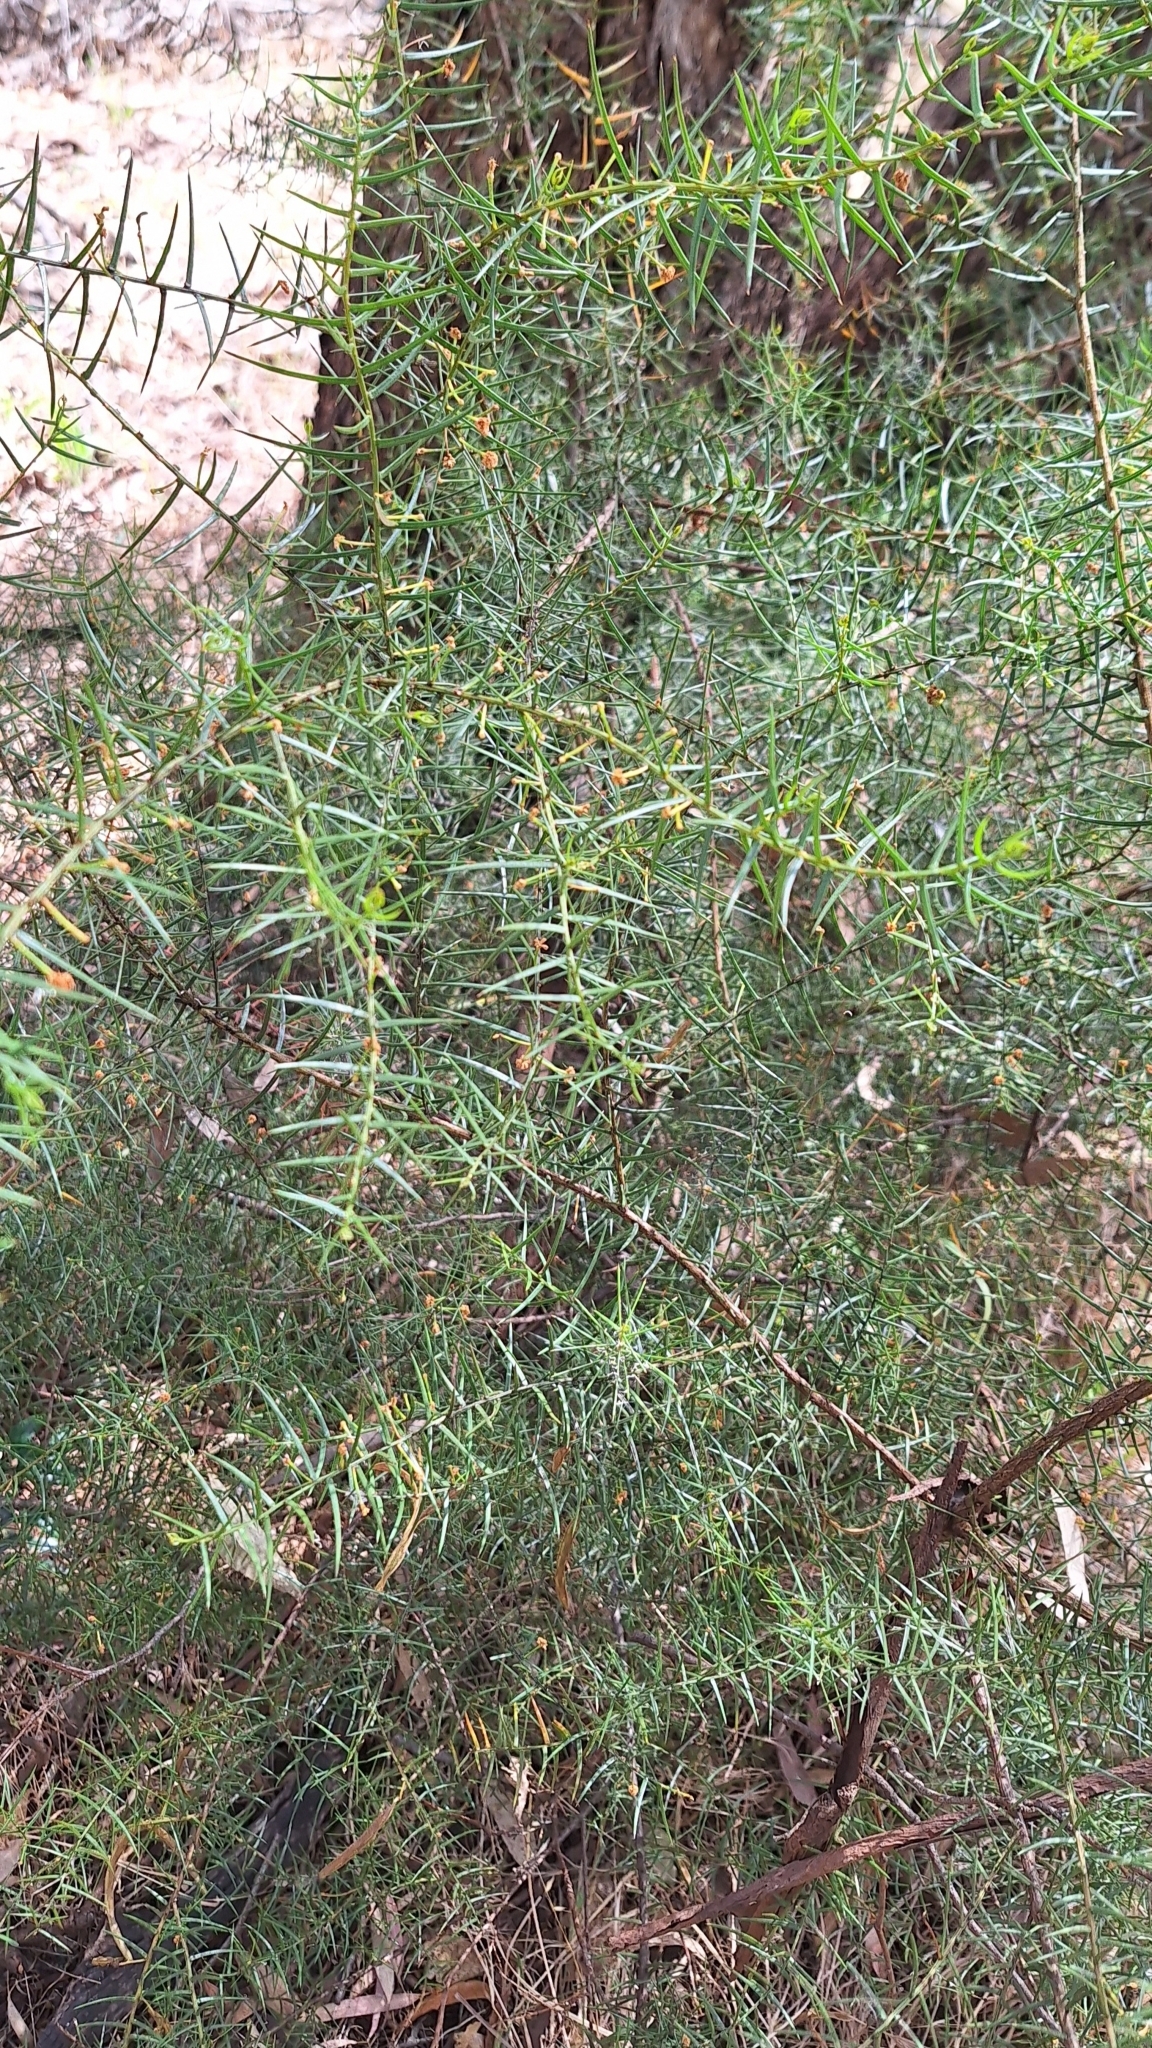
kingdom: Plantae
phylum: Tracheophyta
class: Magnoliopsida
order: Fabales
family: Fabaceae
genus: Acacia
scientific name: Acacia rupicola
